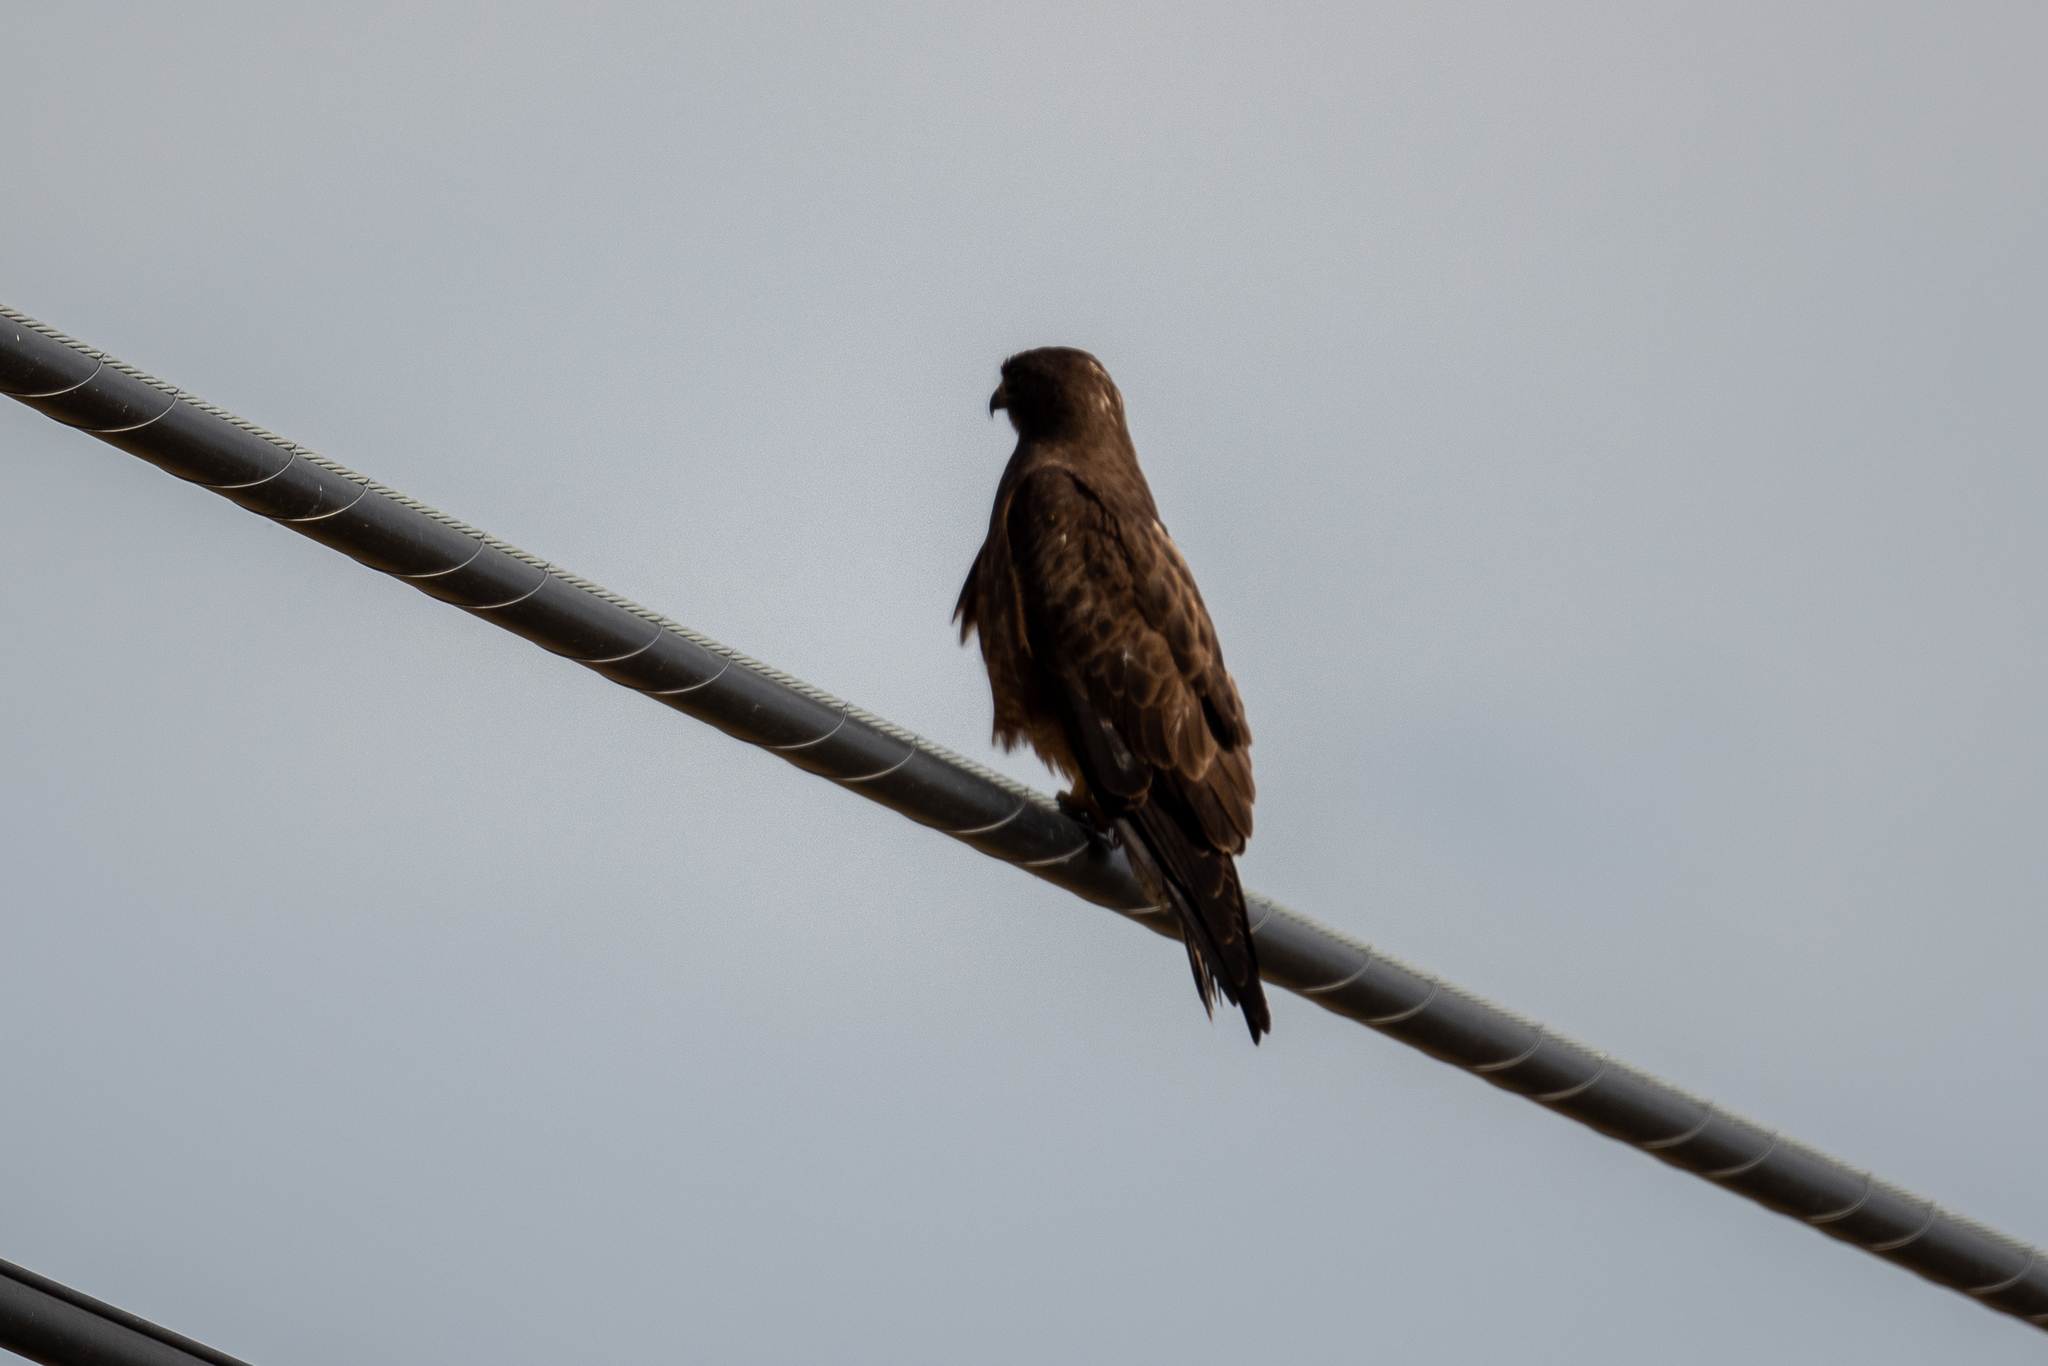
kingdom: Animalia
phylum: Chordata
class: Aves
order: Accipitriformes
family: Accipitridae
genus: Buteo
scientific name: Buteo swainsoni
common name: Swainson's hawk
